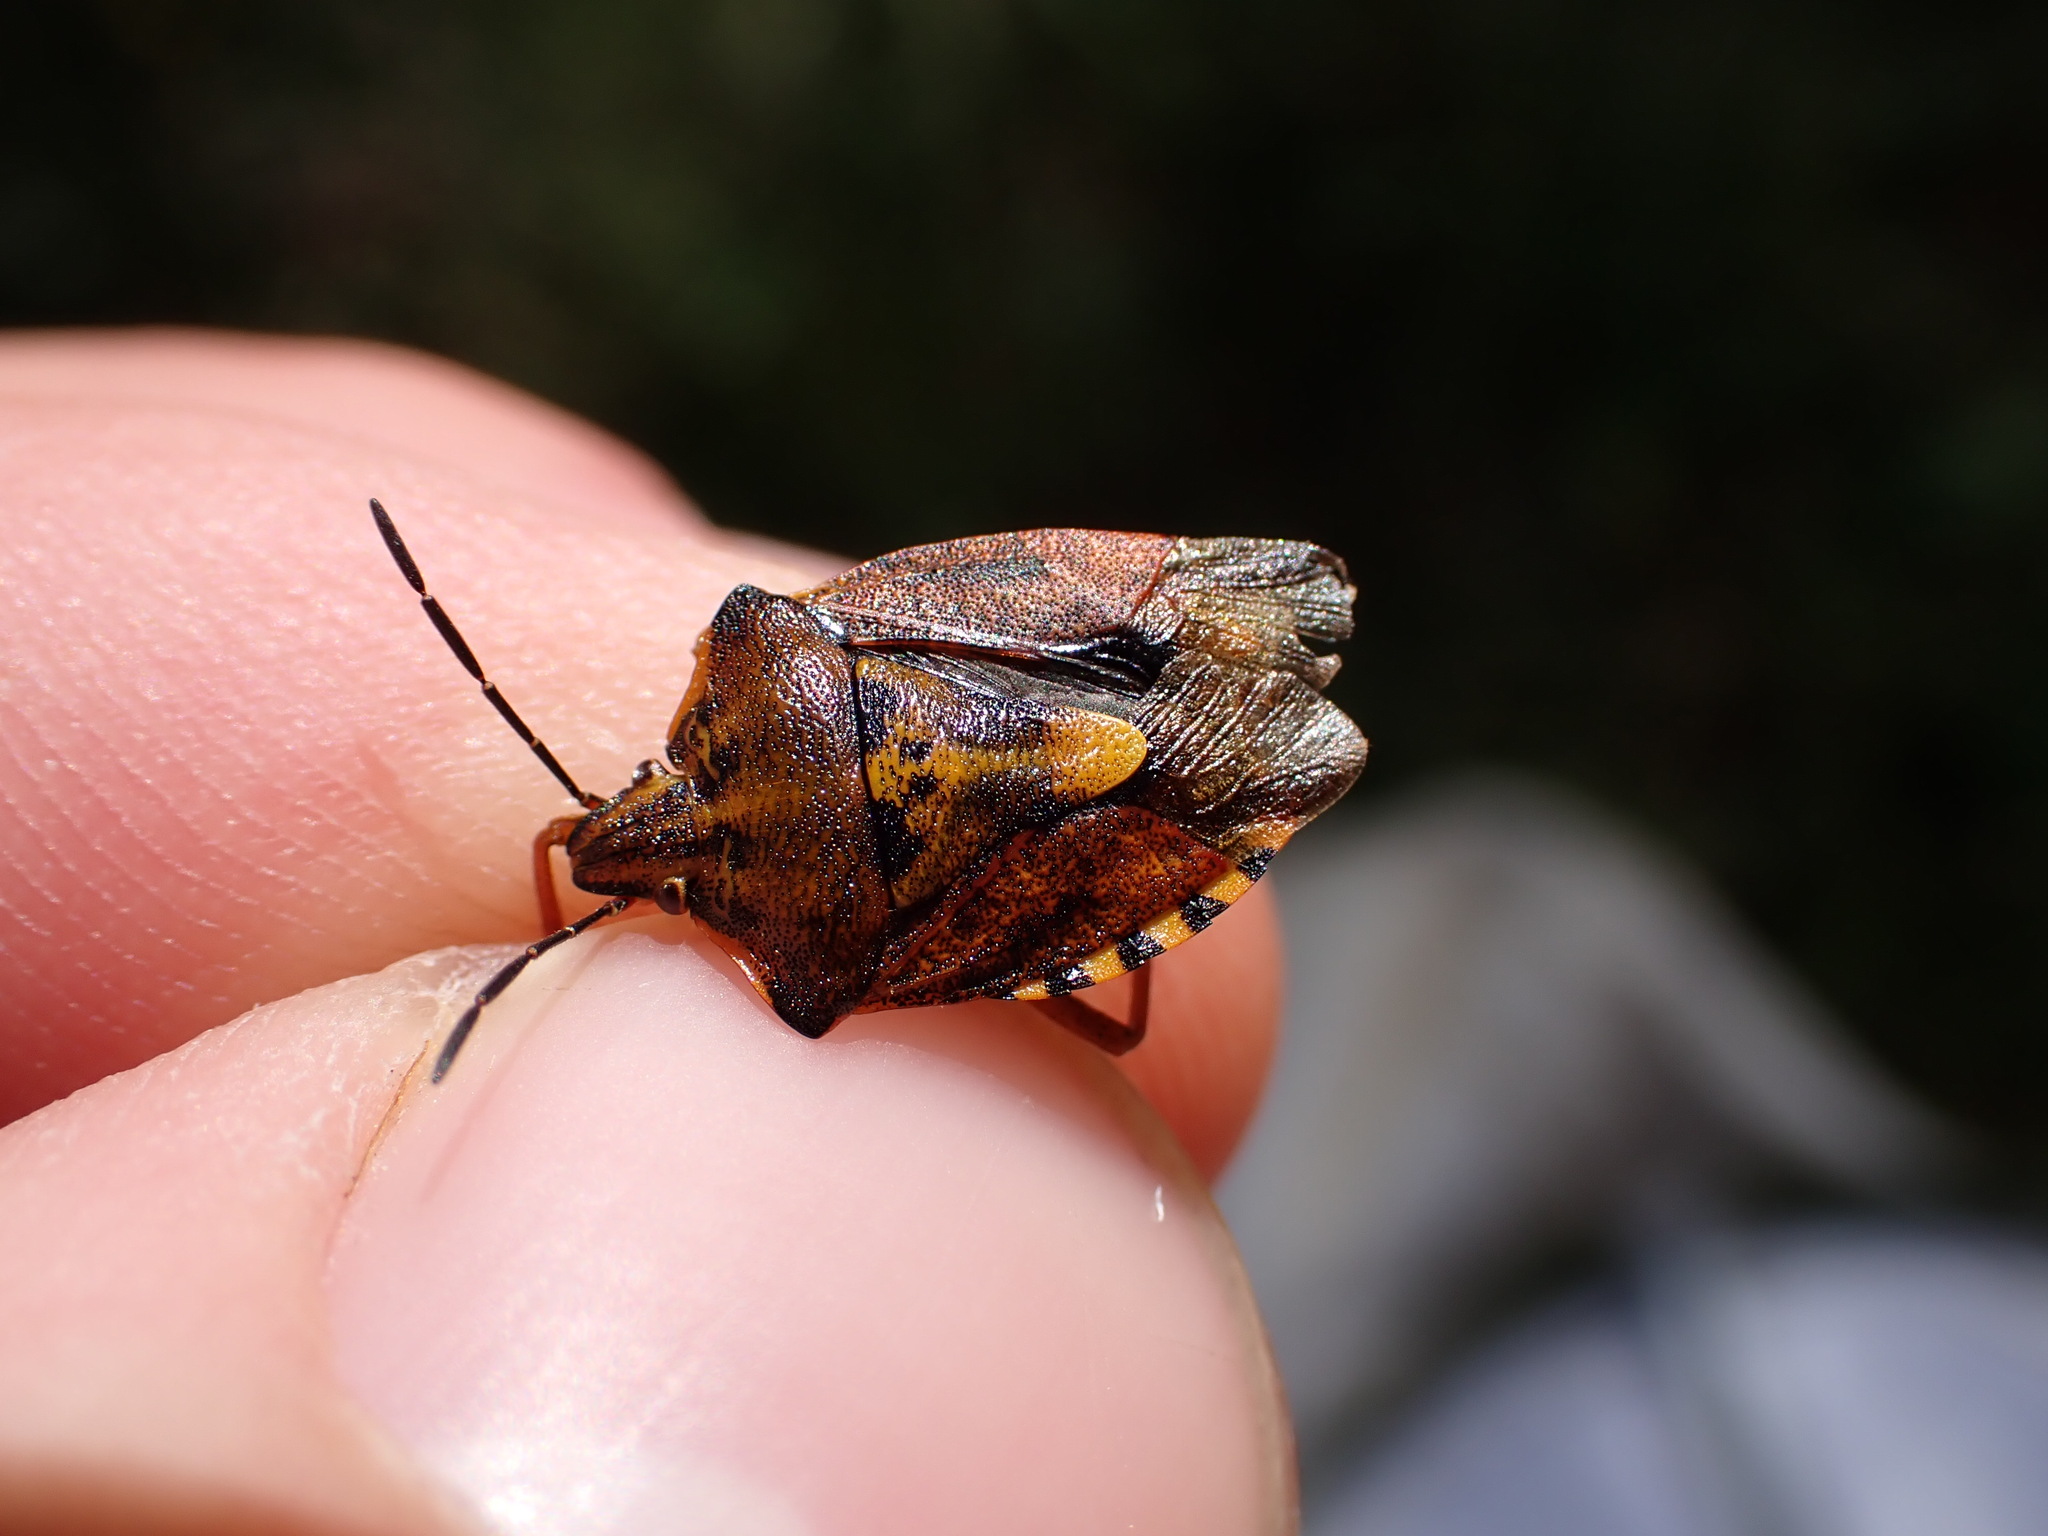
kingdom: Animalia
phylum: Arthropoda
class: Insecta
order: Hemiptera
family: Pentatomidae
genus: Carpocoris
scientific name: Carpocoris purpureipennis
